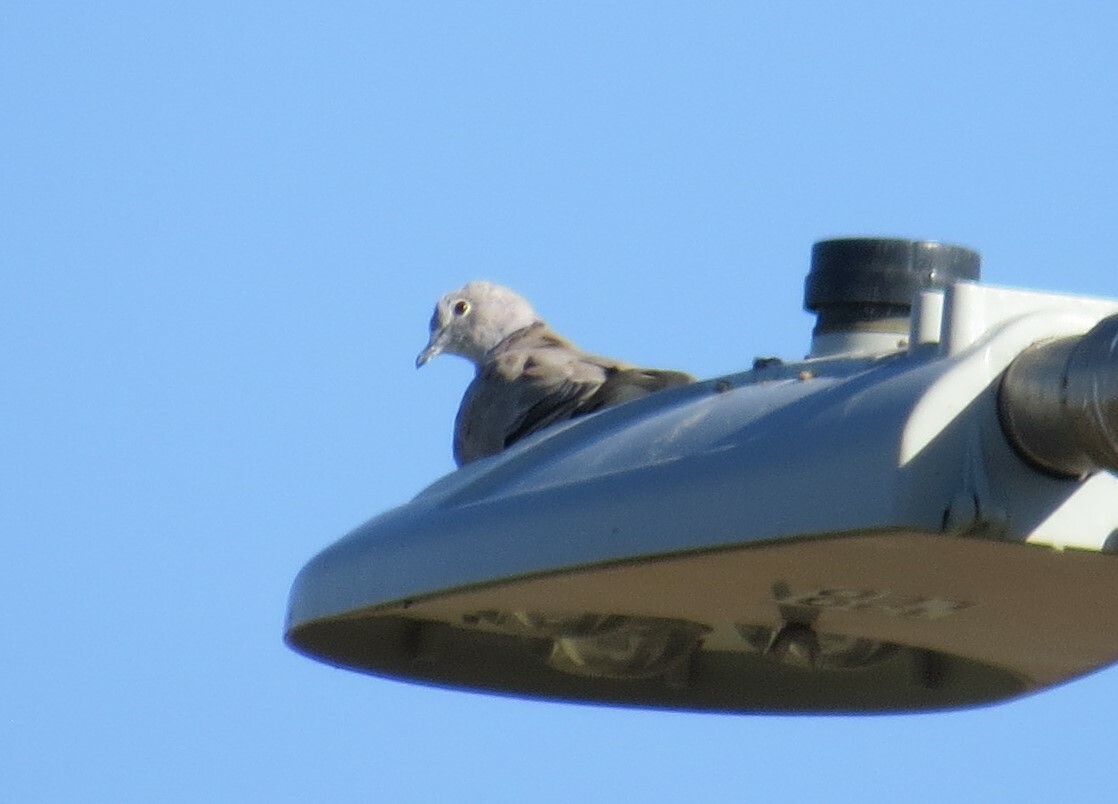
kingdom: Animalia
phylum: Chordata
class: Aves
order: Columbiformes
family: Columbidae
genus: Streptopelia
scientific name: Streptopelia decaocto
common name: Eurasian collared dove
